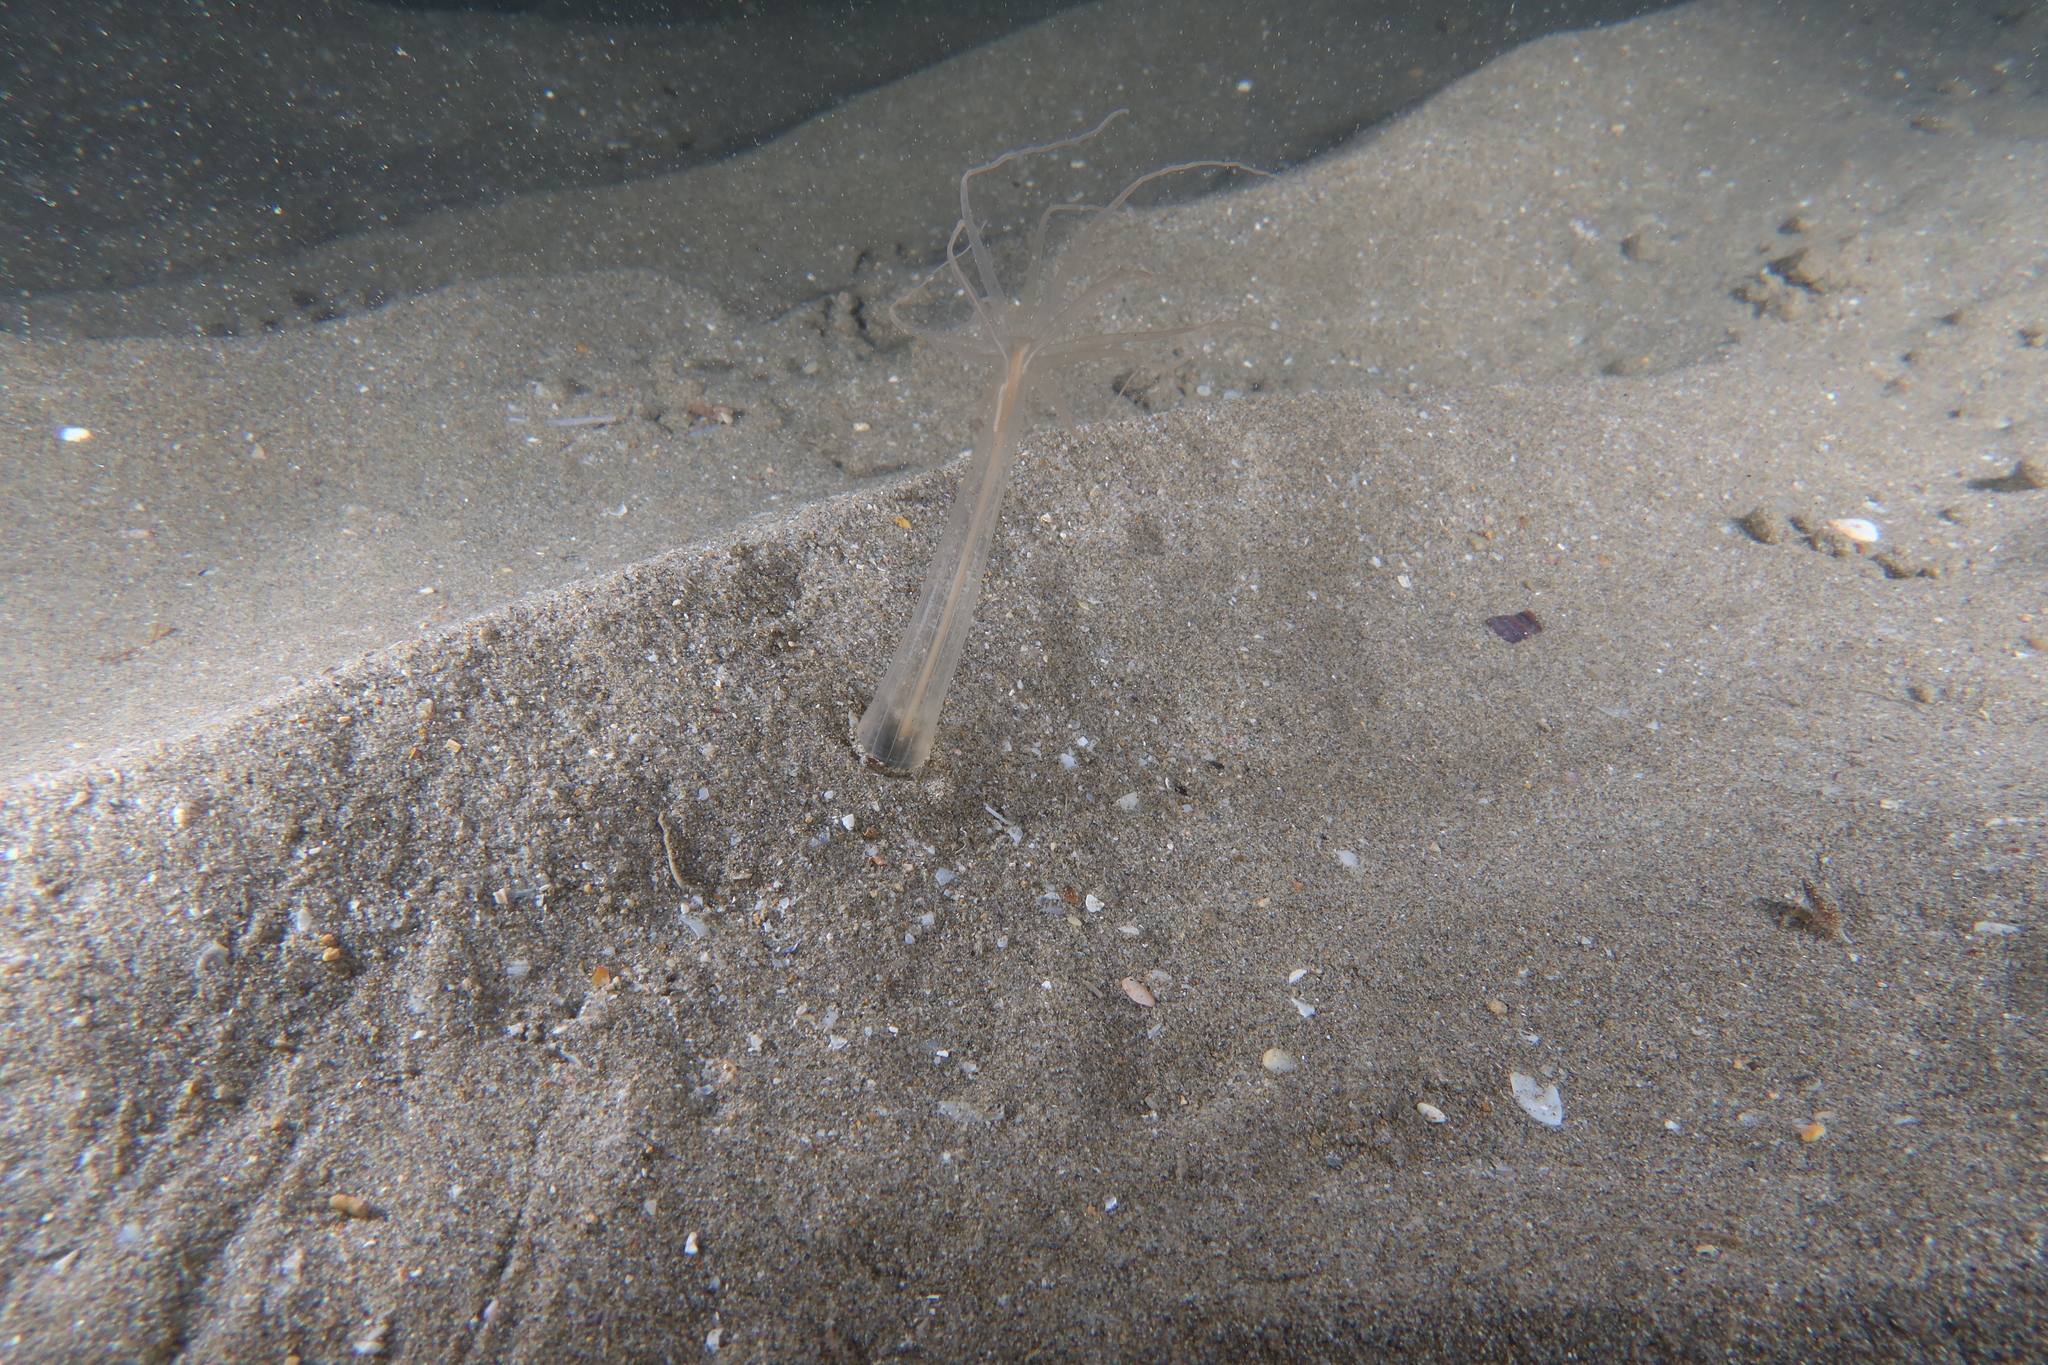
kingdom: Animalia
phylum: Cnidaria
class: Anthozoa
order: Actiniaria
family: Halcampoididae
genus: Halcampoides
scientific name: Halcampoides purpureus
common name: Purple anemone
